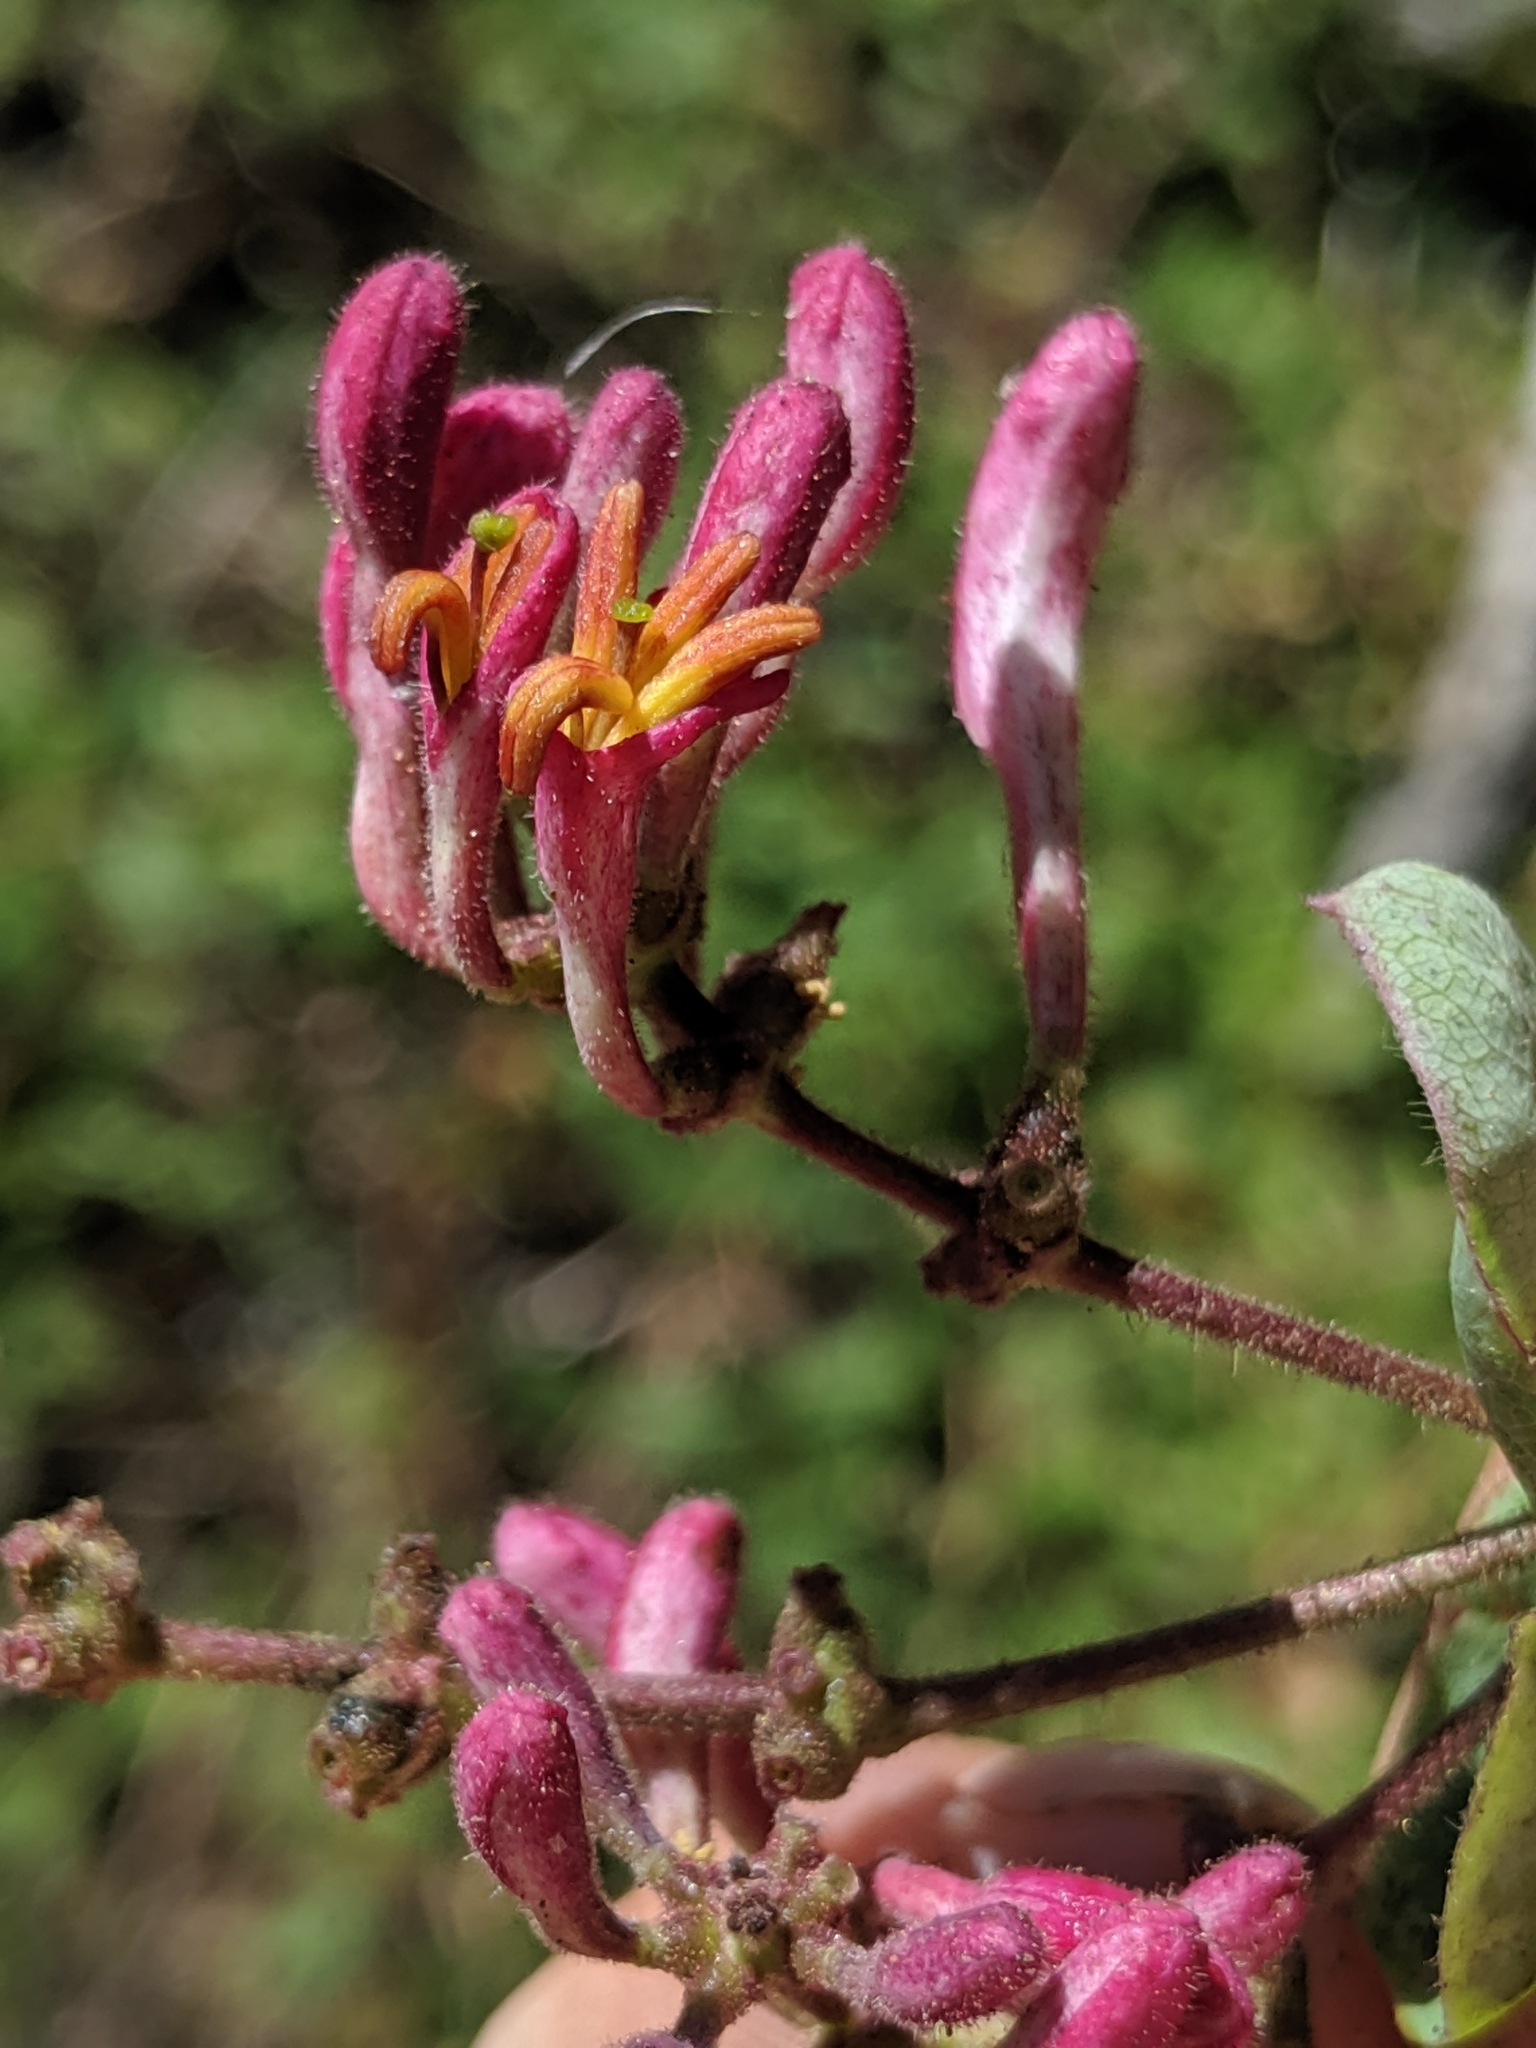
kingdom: Plantae
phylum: Tracheophyta
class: Magnoliopsida
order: Dipsacales
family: Caprifoliaceae
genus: Lonicera
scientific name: Lonicera hispidula
